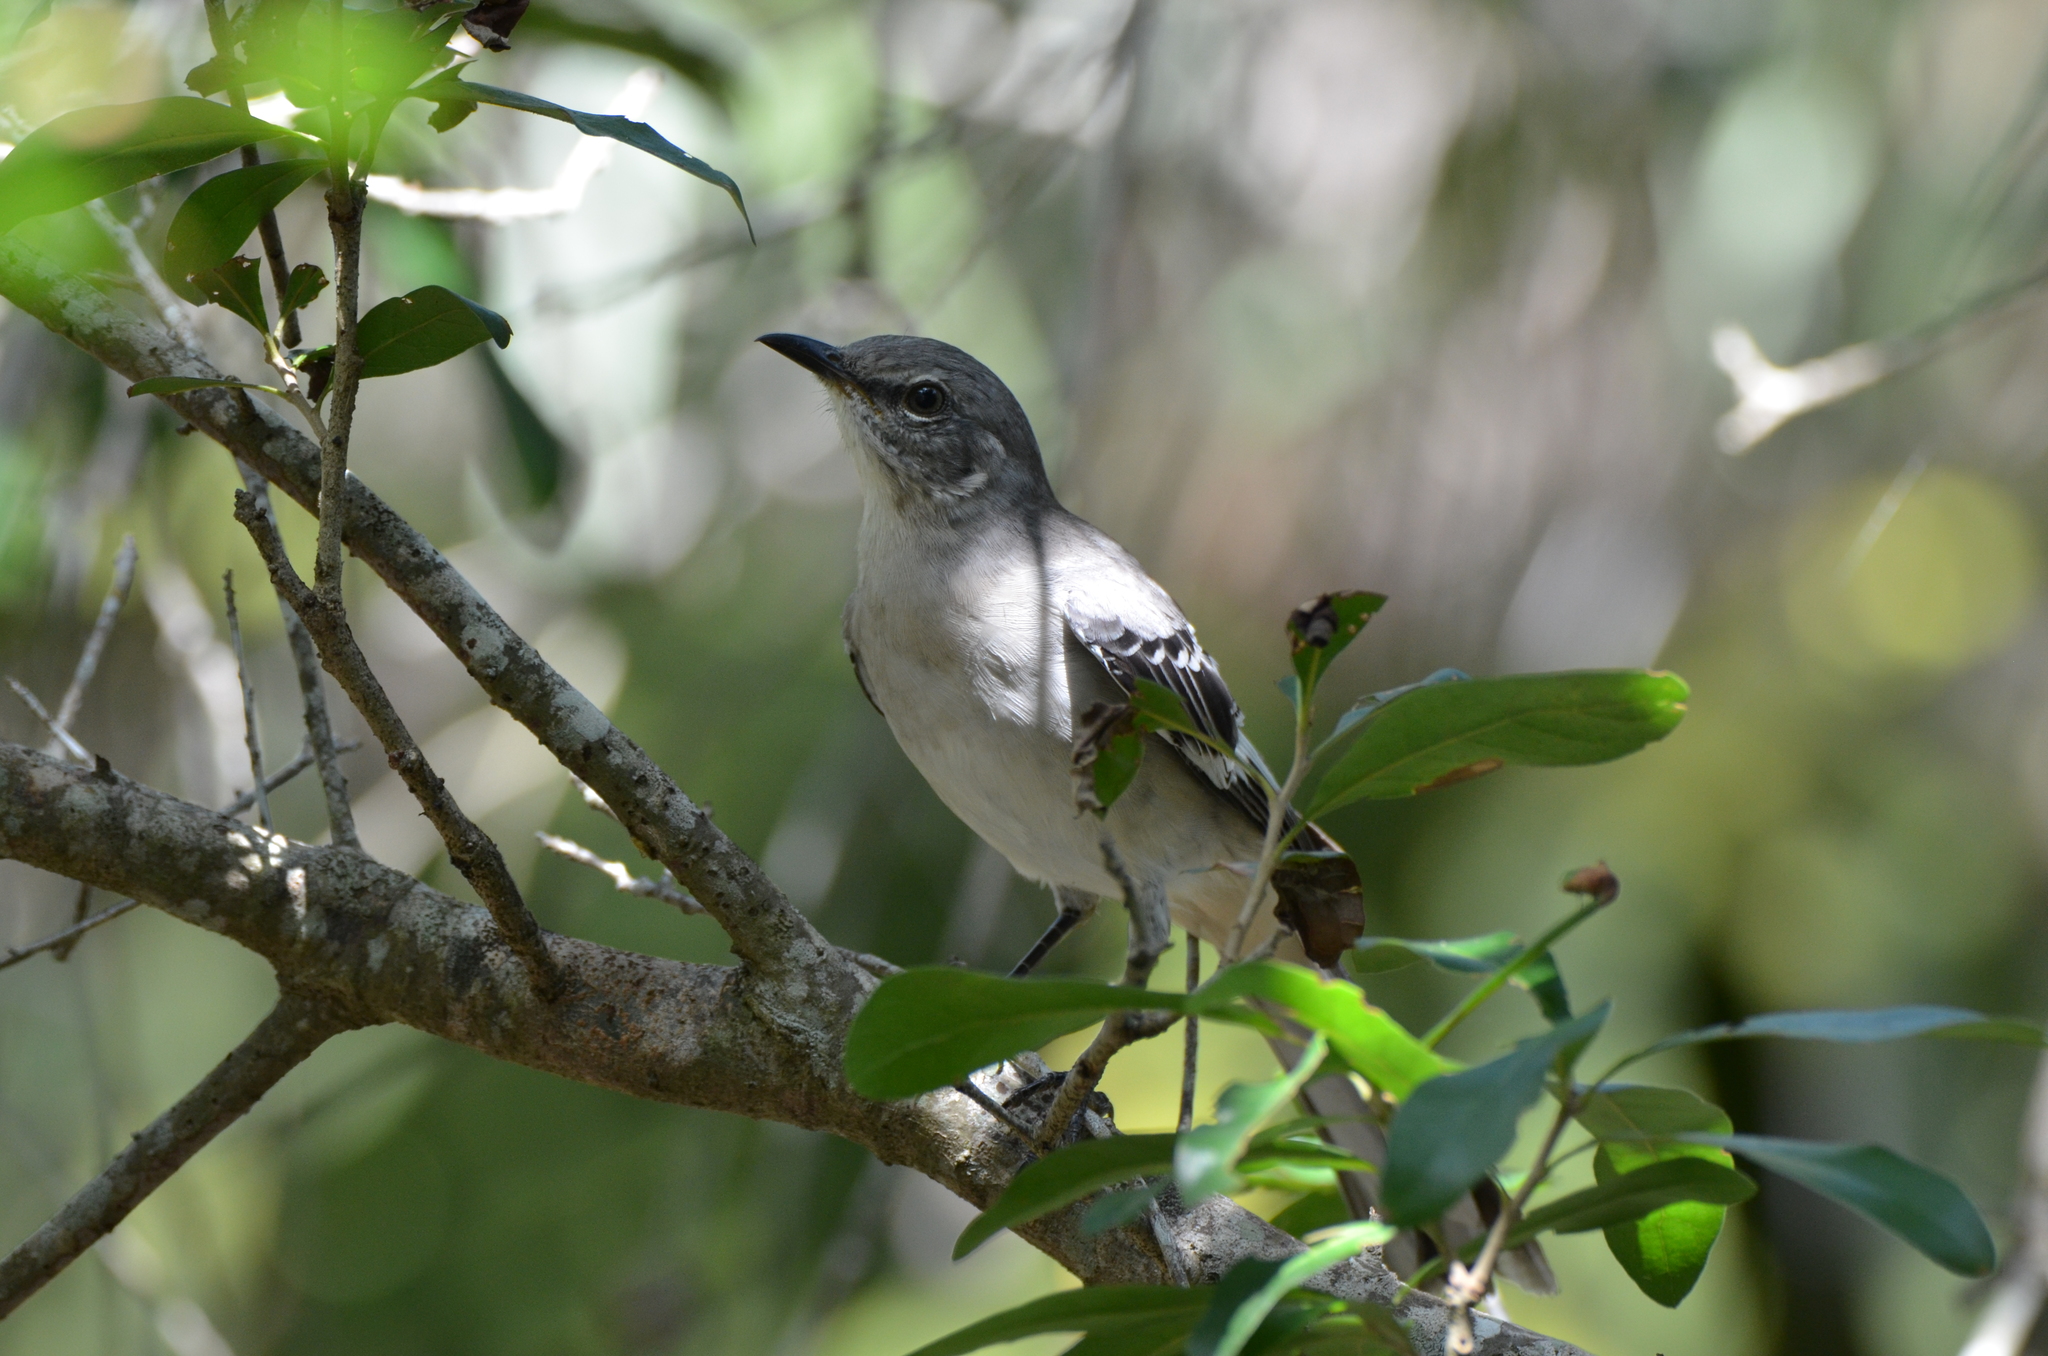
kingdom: Animalia
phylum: Chordata
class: Aves
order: Passeriformes
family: Mimidae
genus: Mimus
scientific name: Mimus polyglottos
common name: Northern mockingbird
